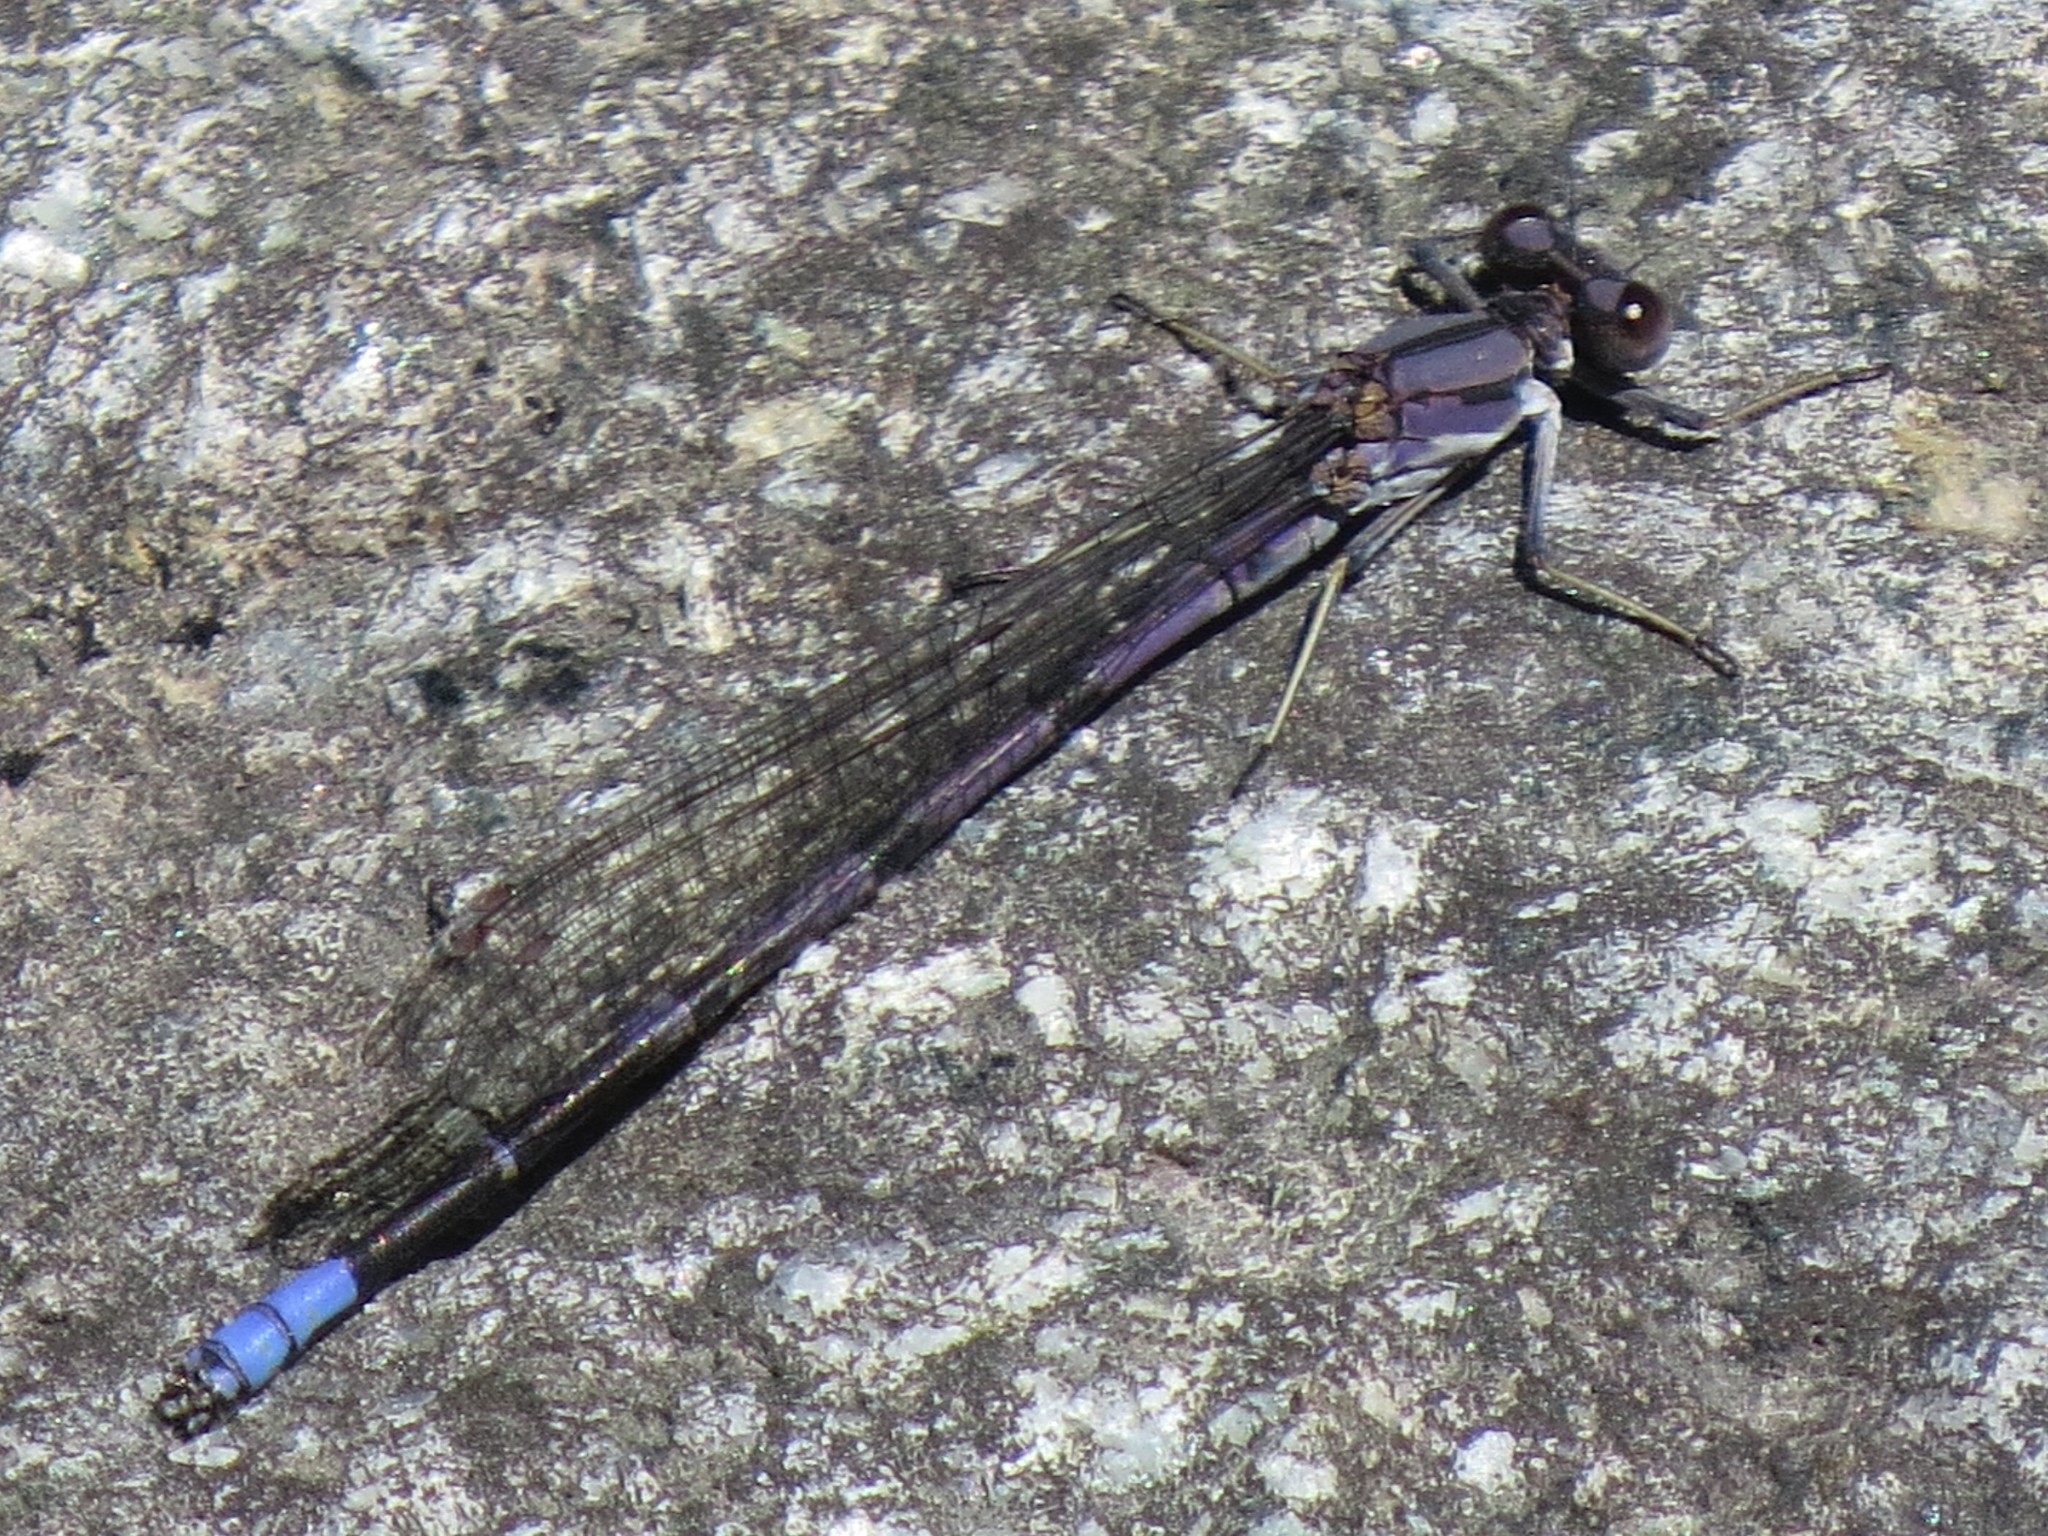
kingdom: Animalia
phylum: Arthropoda
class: Insecta
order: Odonata
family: Coenagrionidae
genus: Argia
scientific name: Argia emma
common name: Emma's dancer
